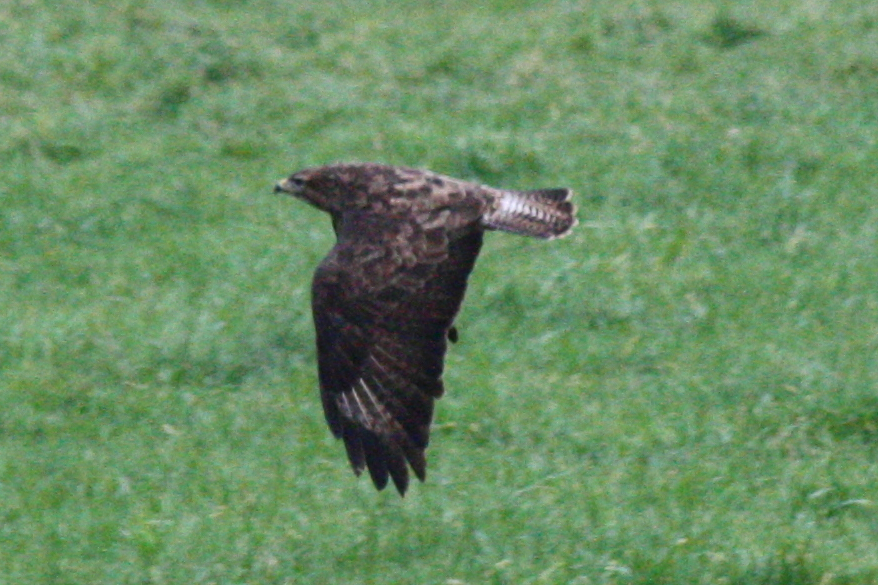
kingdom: Animalia
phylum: Chordata
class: Aves
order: Accipitriformes
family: Accipitridae
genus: Buteo
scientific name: Buteo buteo
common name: Common buzzard
